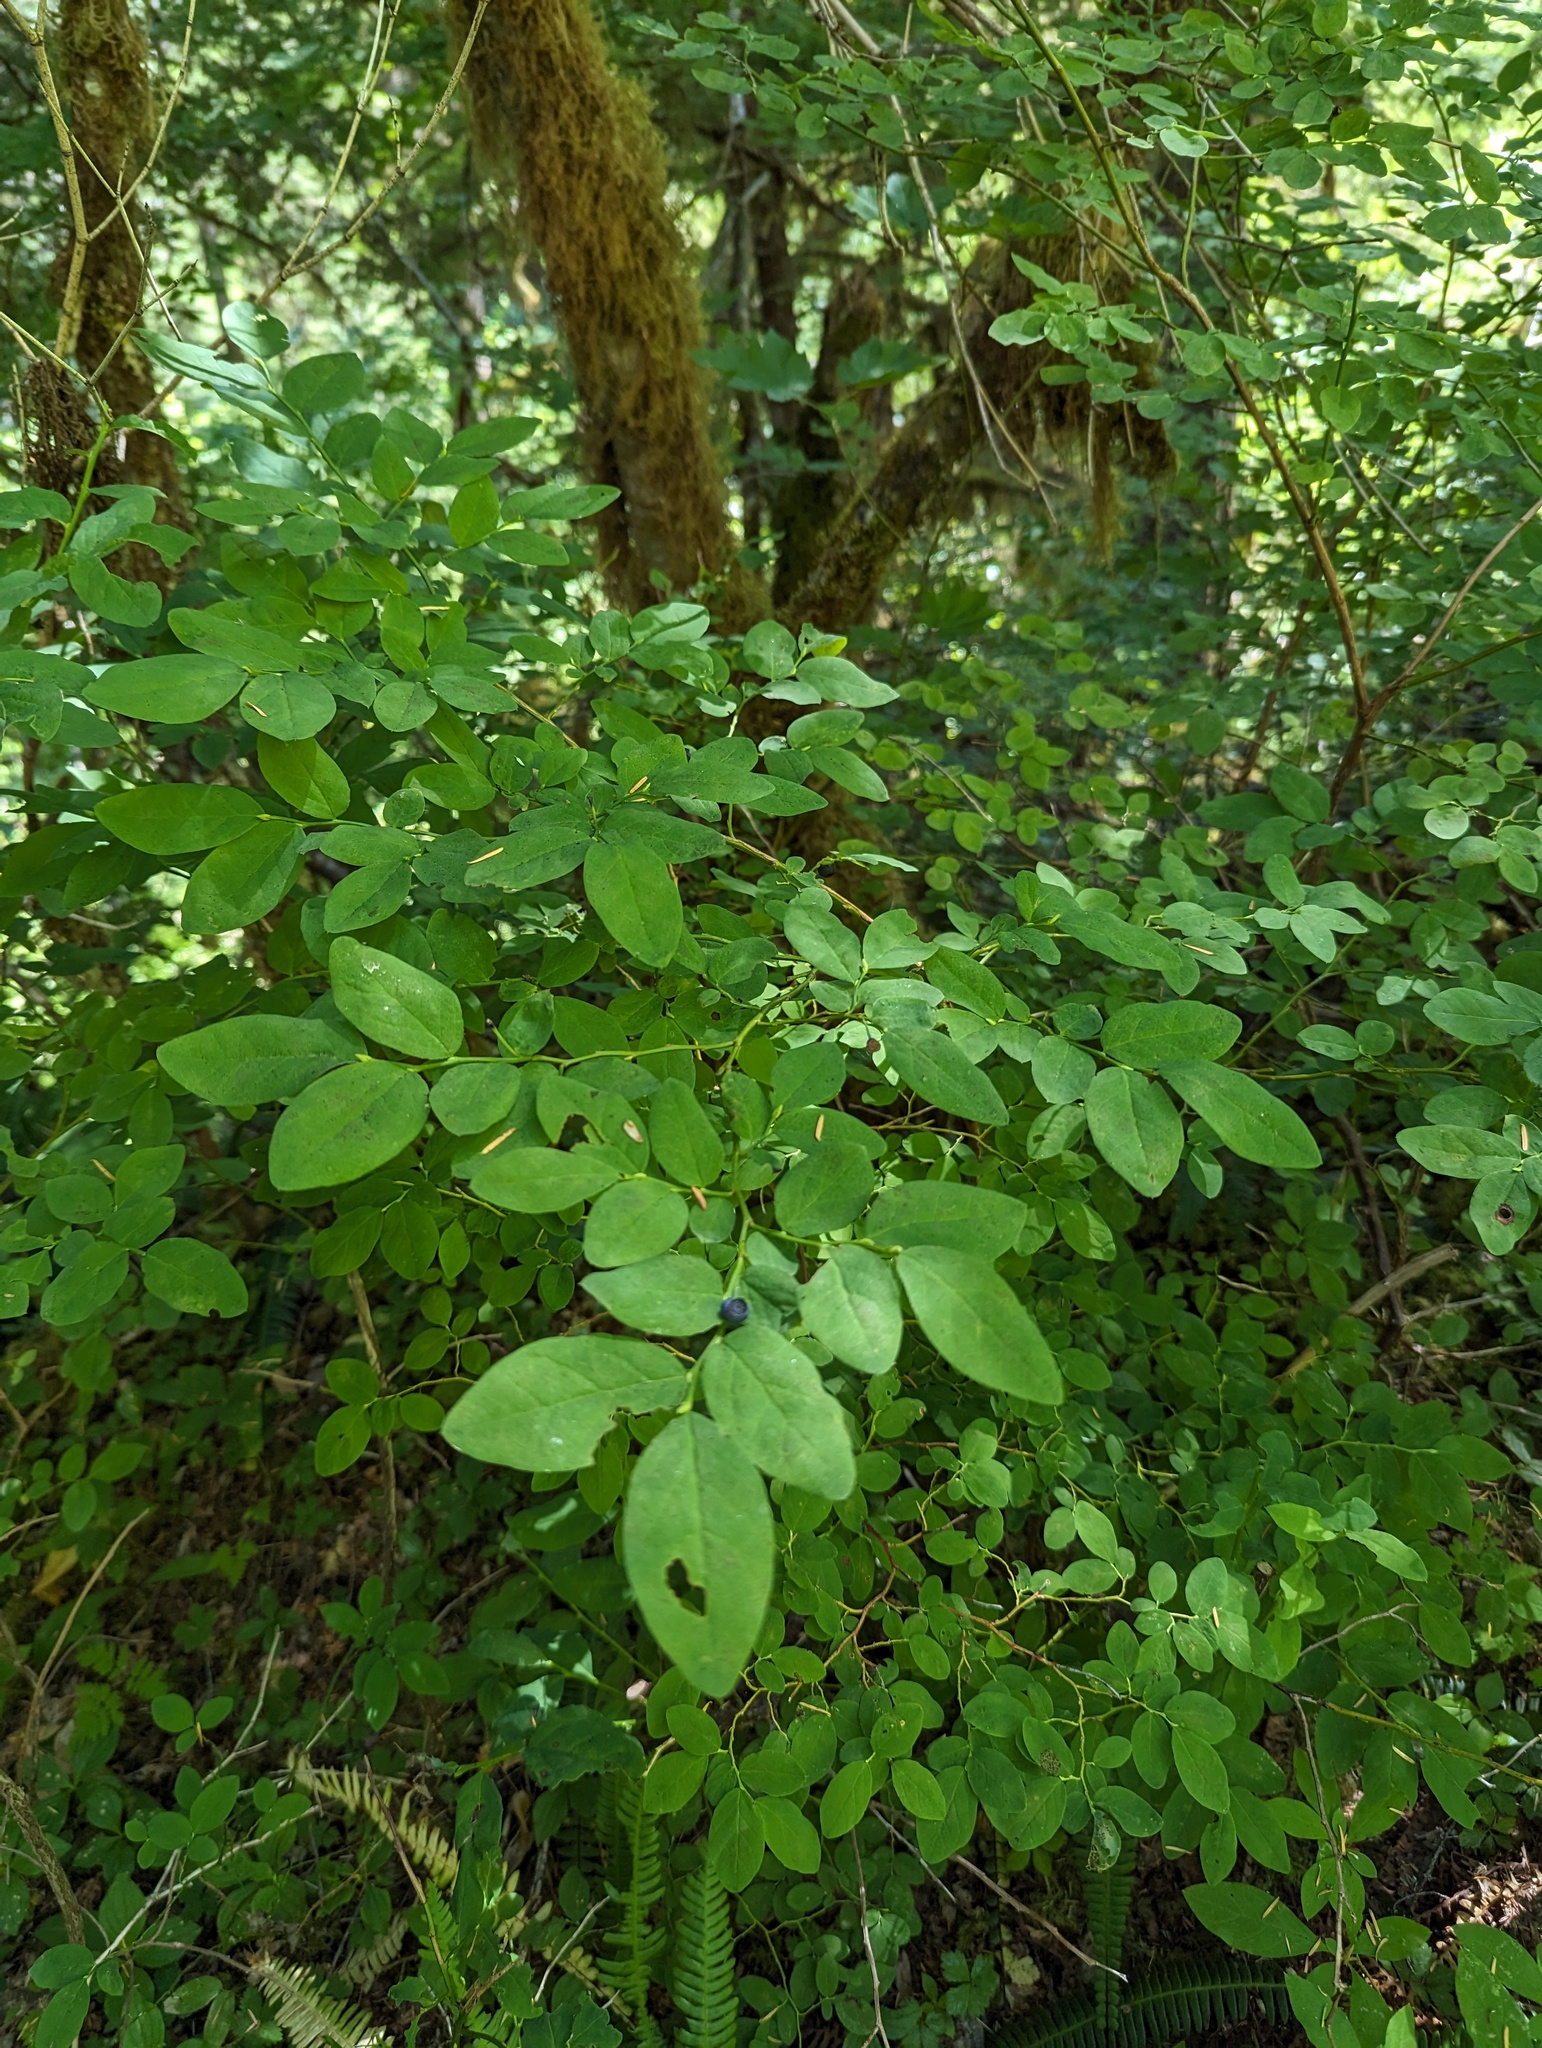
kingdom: Plantae
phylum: Tracheophyta
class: Magnoliopsida
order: Ericales
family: Ericaceae
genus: Vaccinium
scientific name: Vaccinium ovalifolium
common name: Early blueberry
